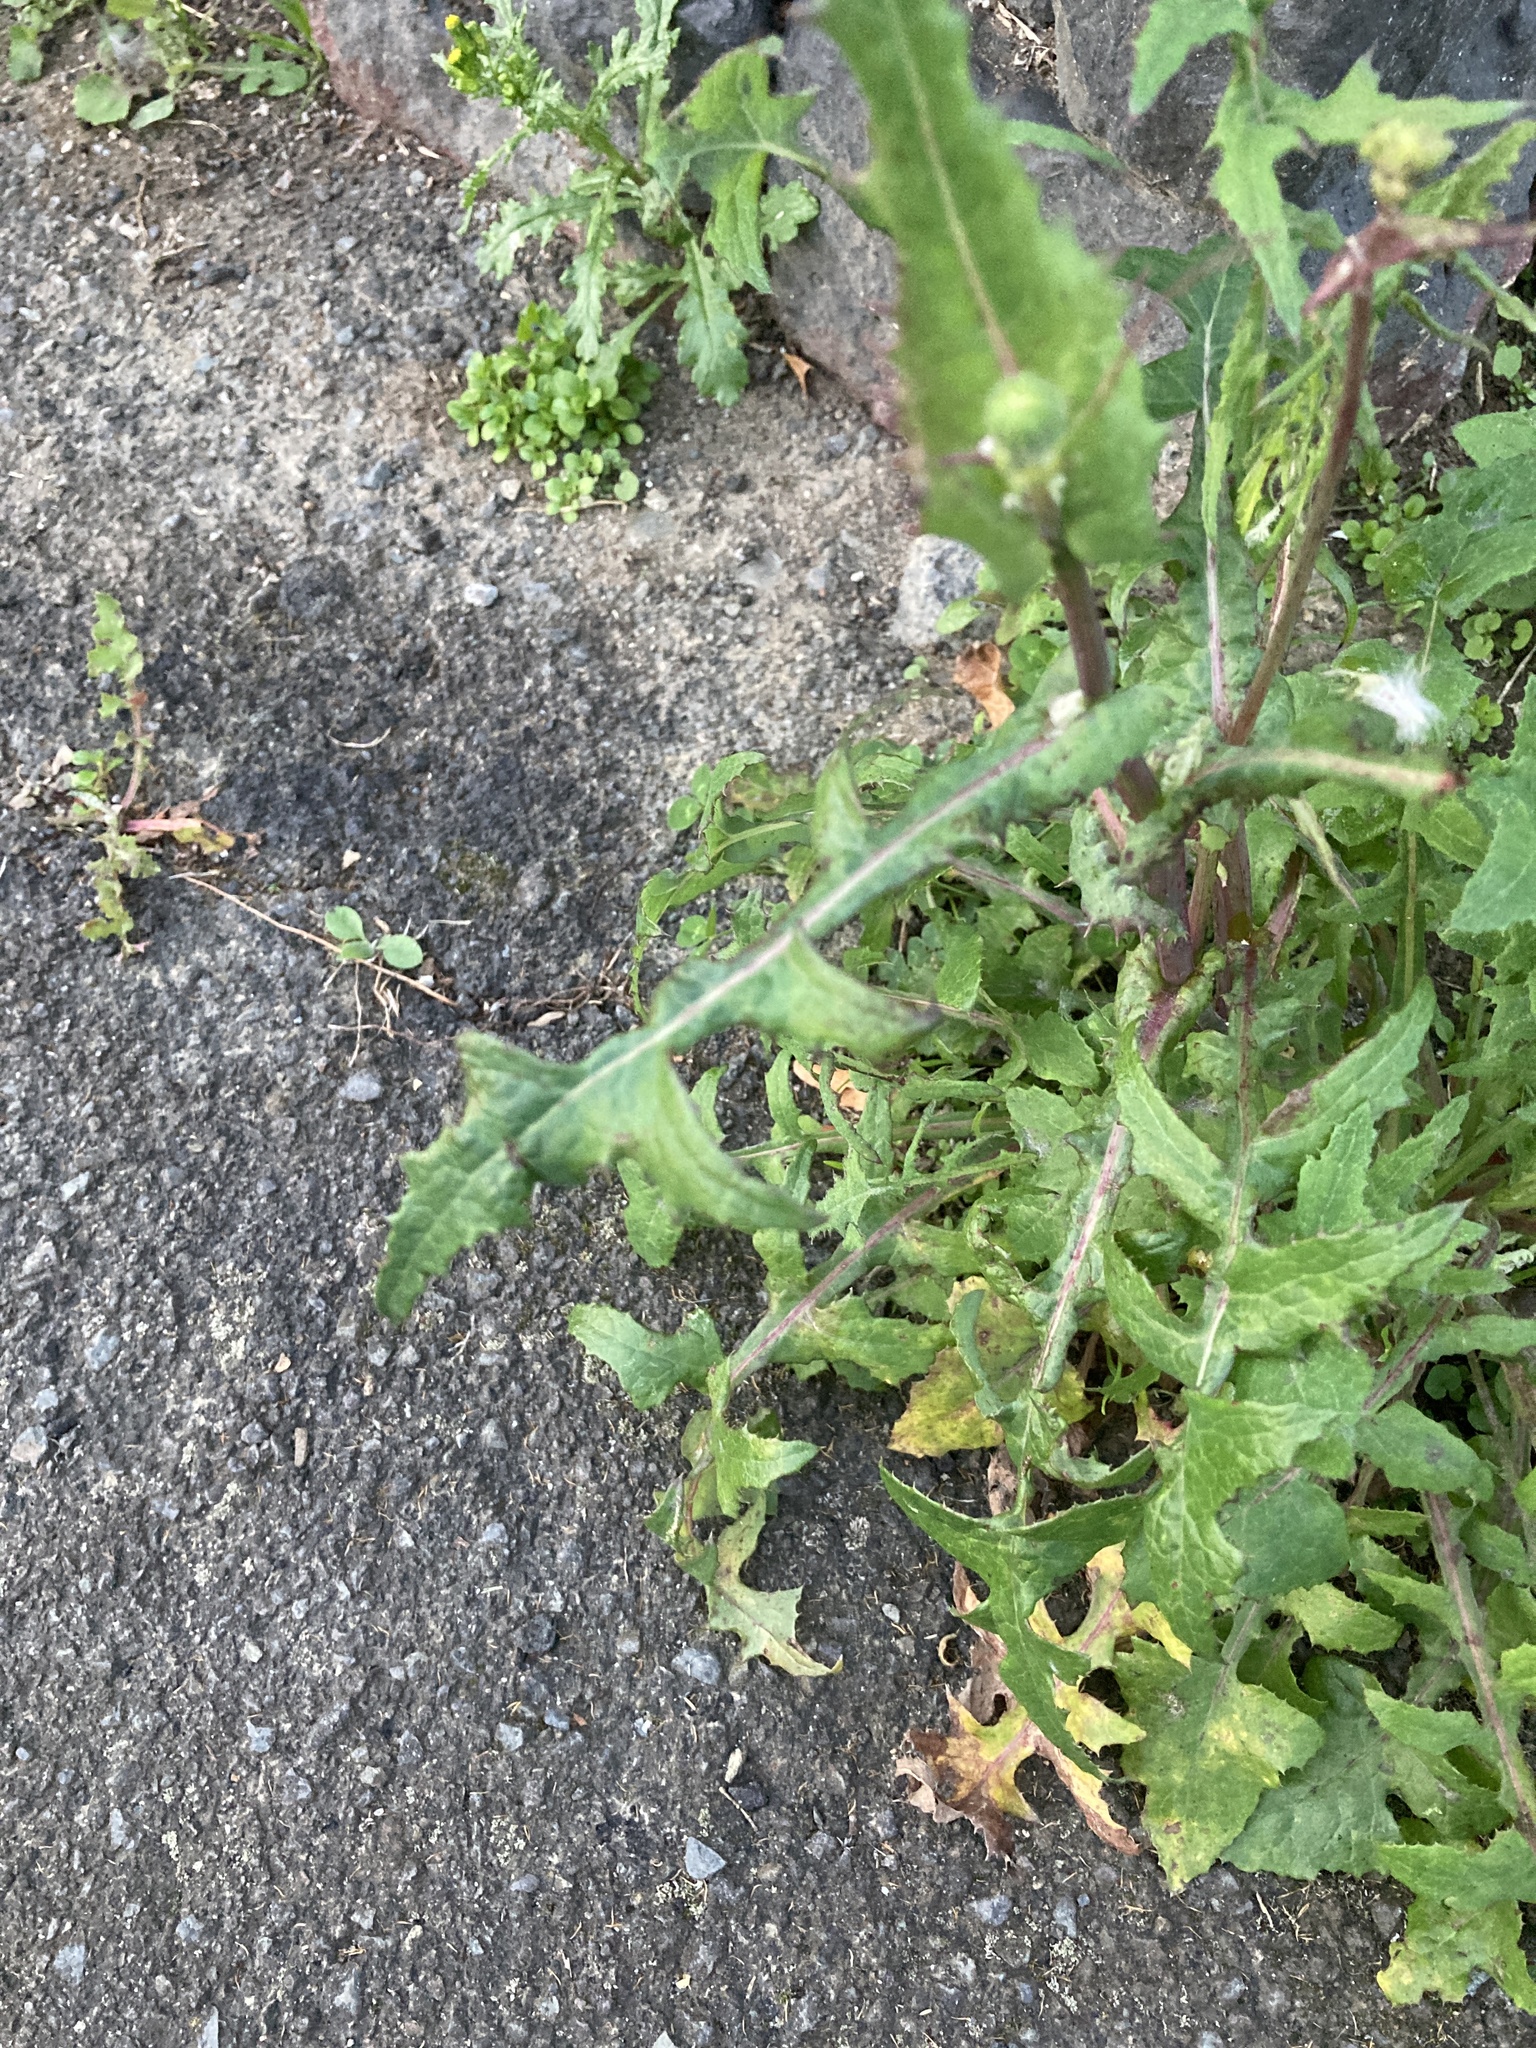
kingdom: Plantae
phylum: Tracheophyta
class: Magnoliopsida
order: Asterales
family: Asteraceae
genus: Sonchus
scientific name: Sonchus oleraceus
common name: Common sowthistle
